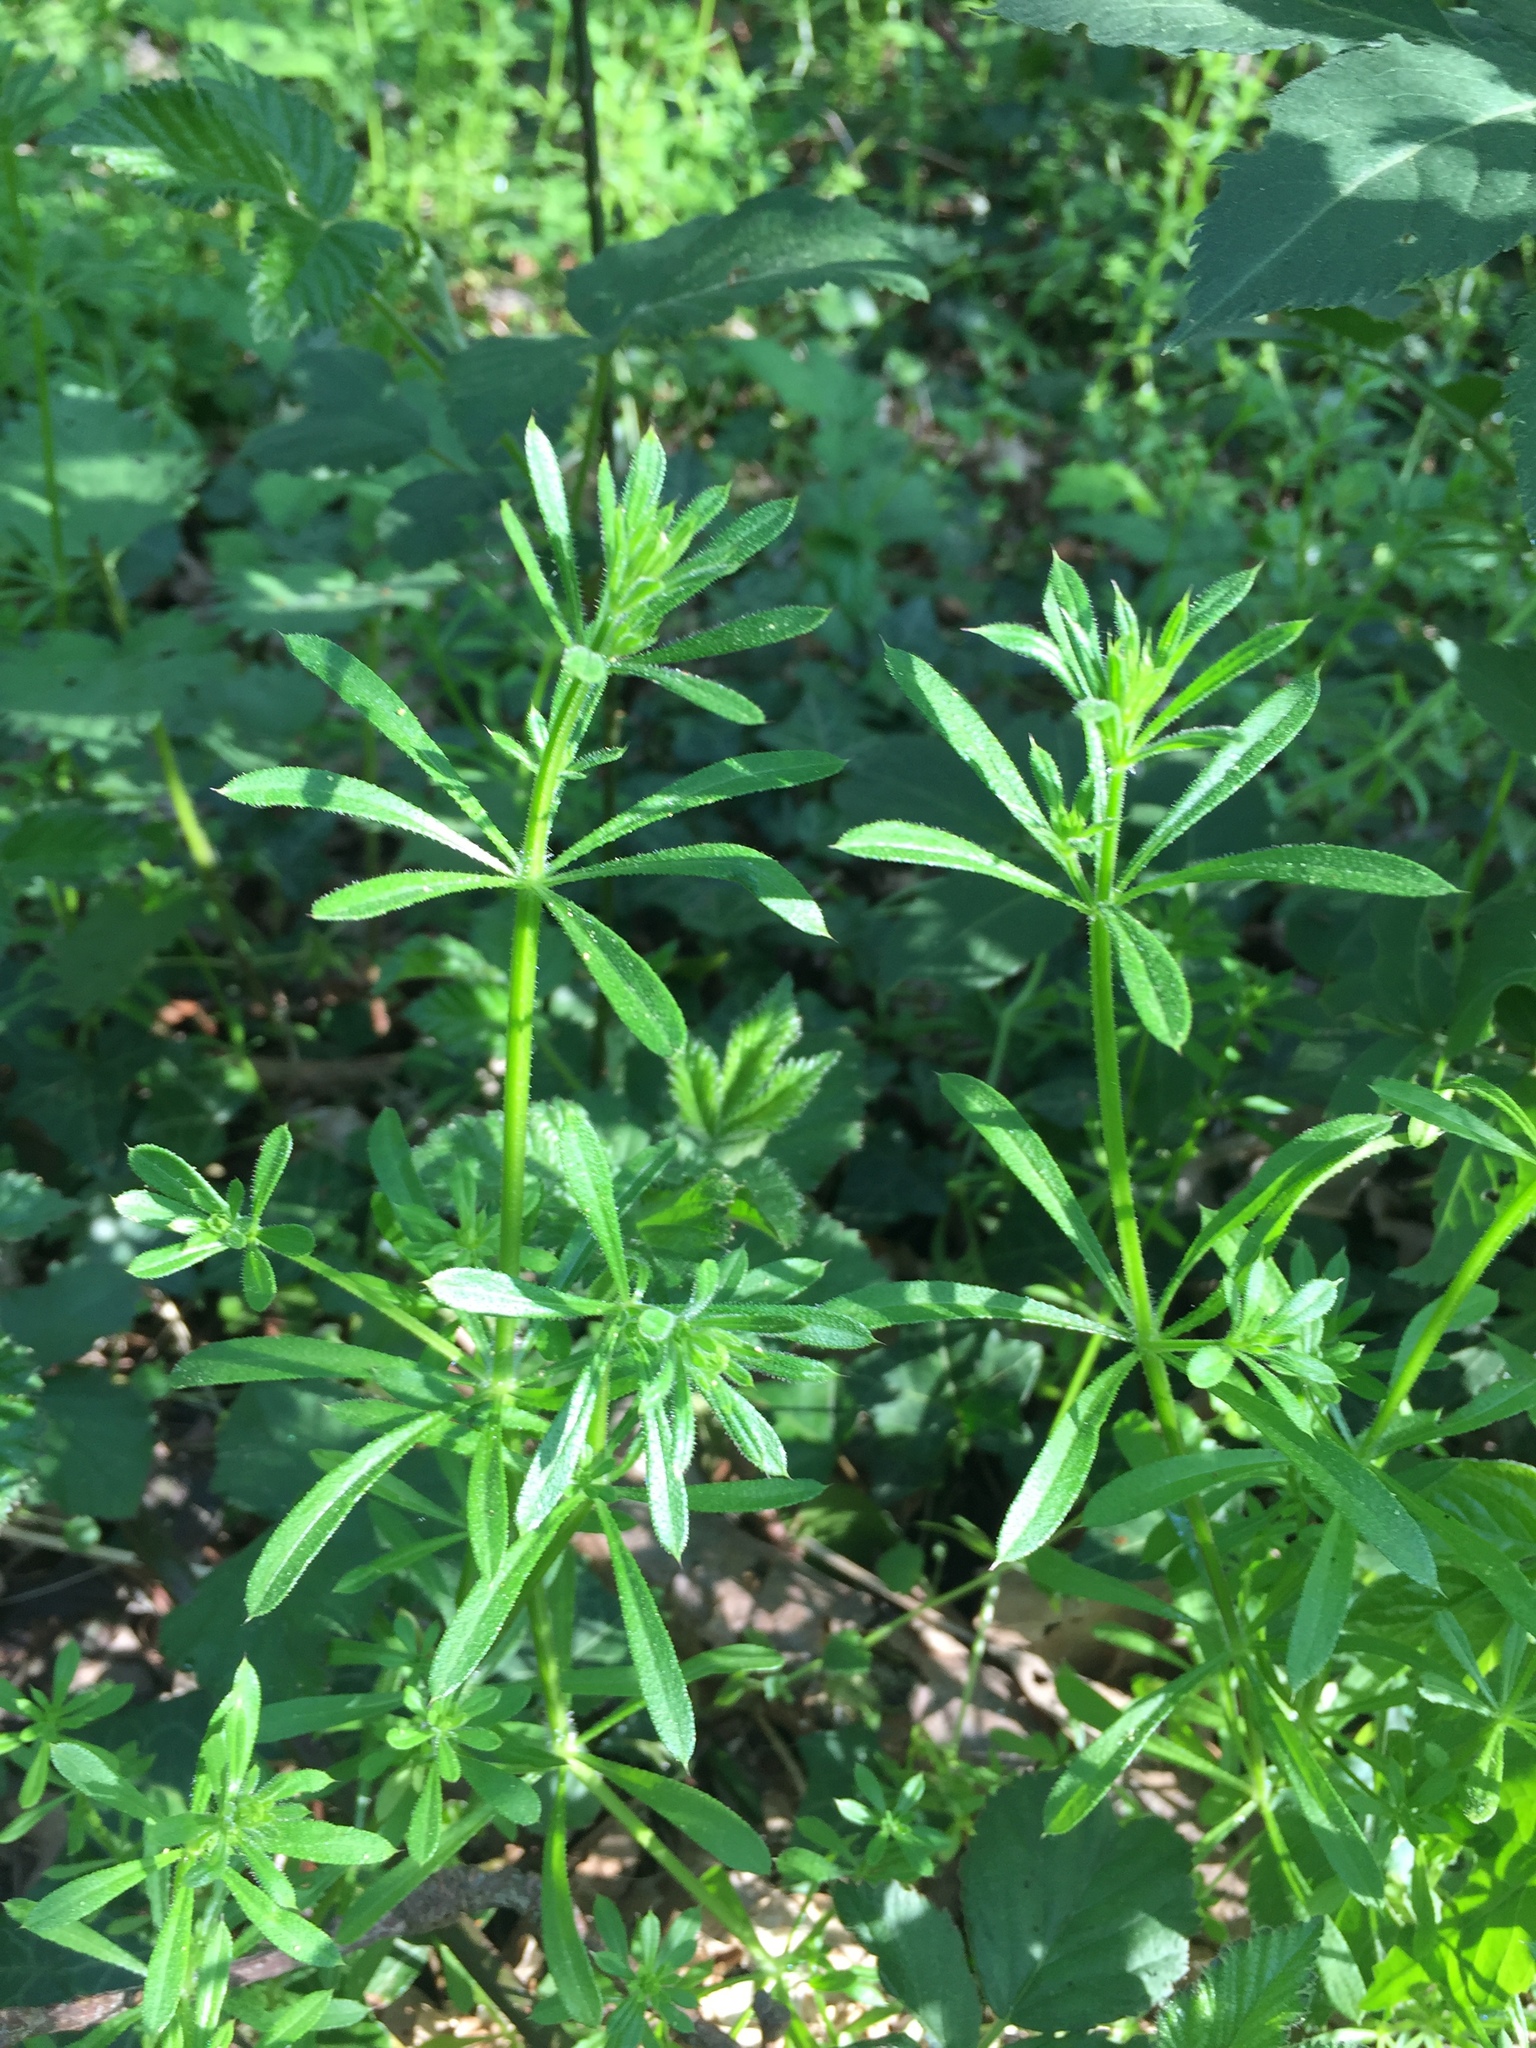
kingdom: Plantae
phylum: Tracheophyta
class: Magnoliopsida
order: Gentianales
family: Rubiaceae
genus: Galium
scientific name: Galium aparine
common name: Cleavers
